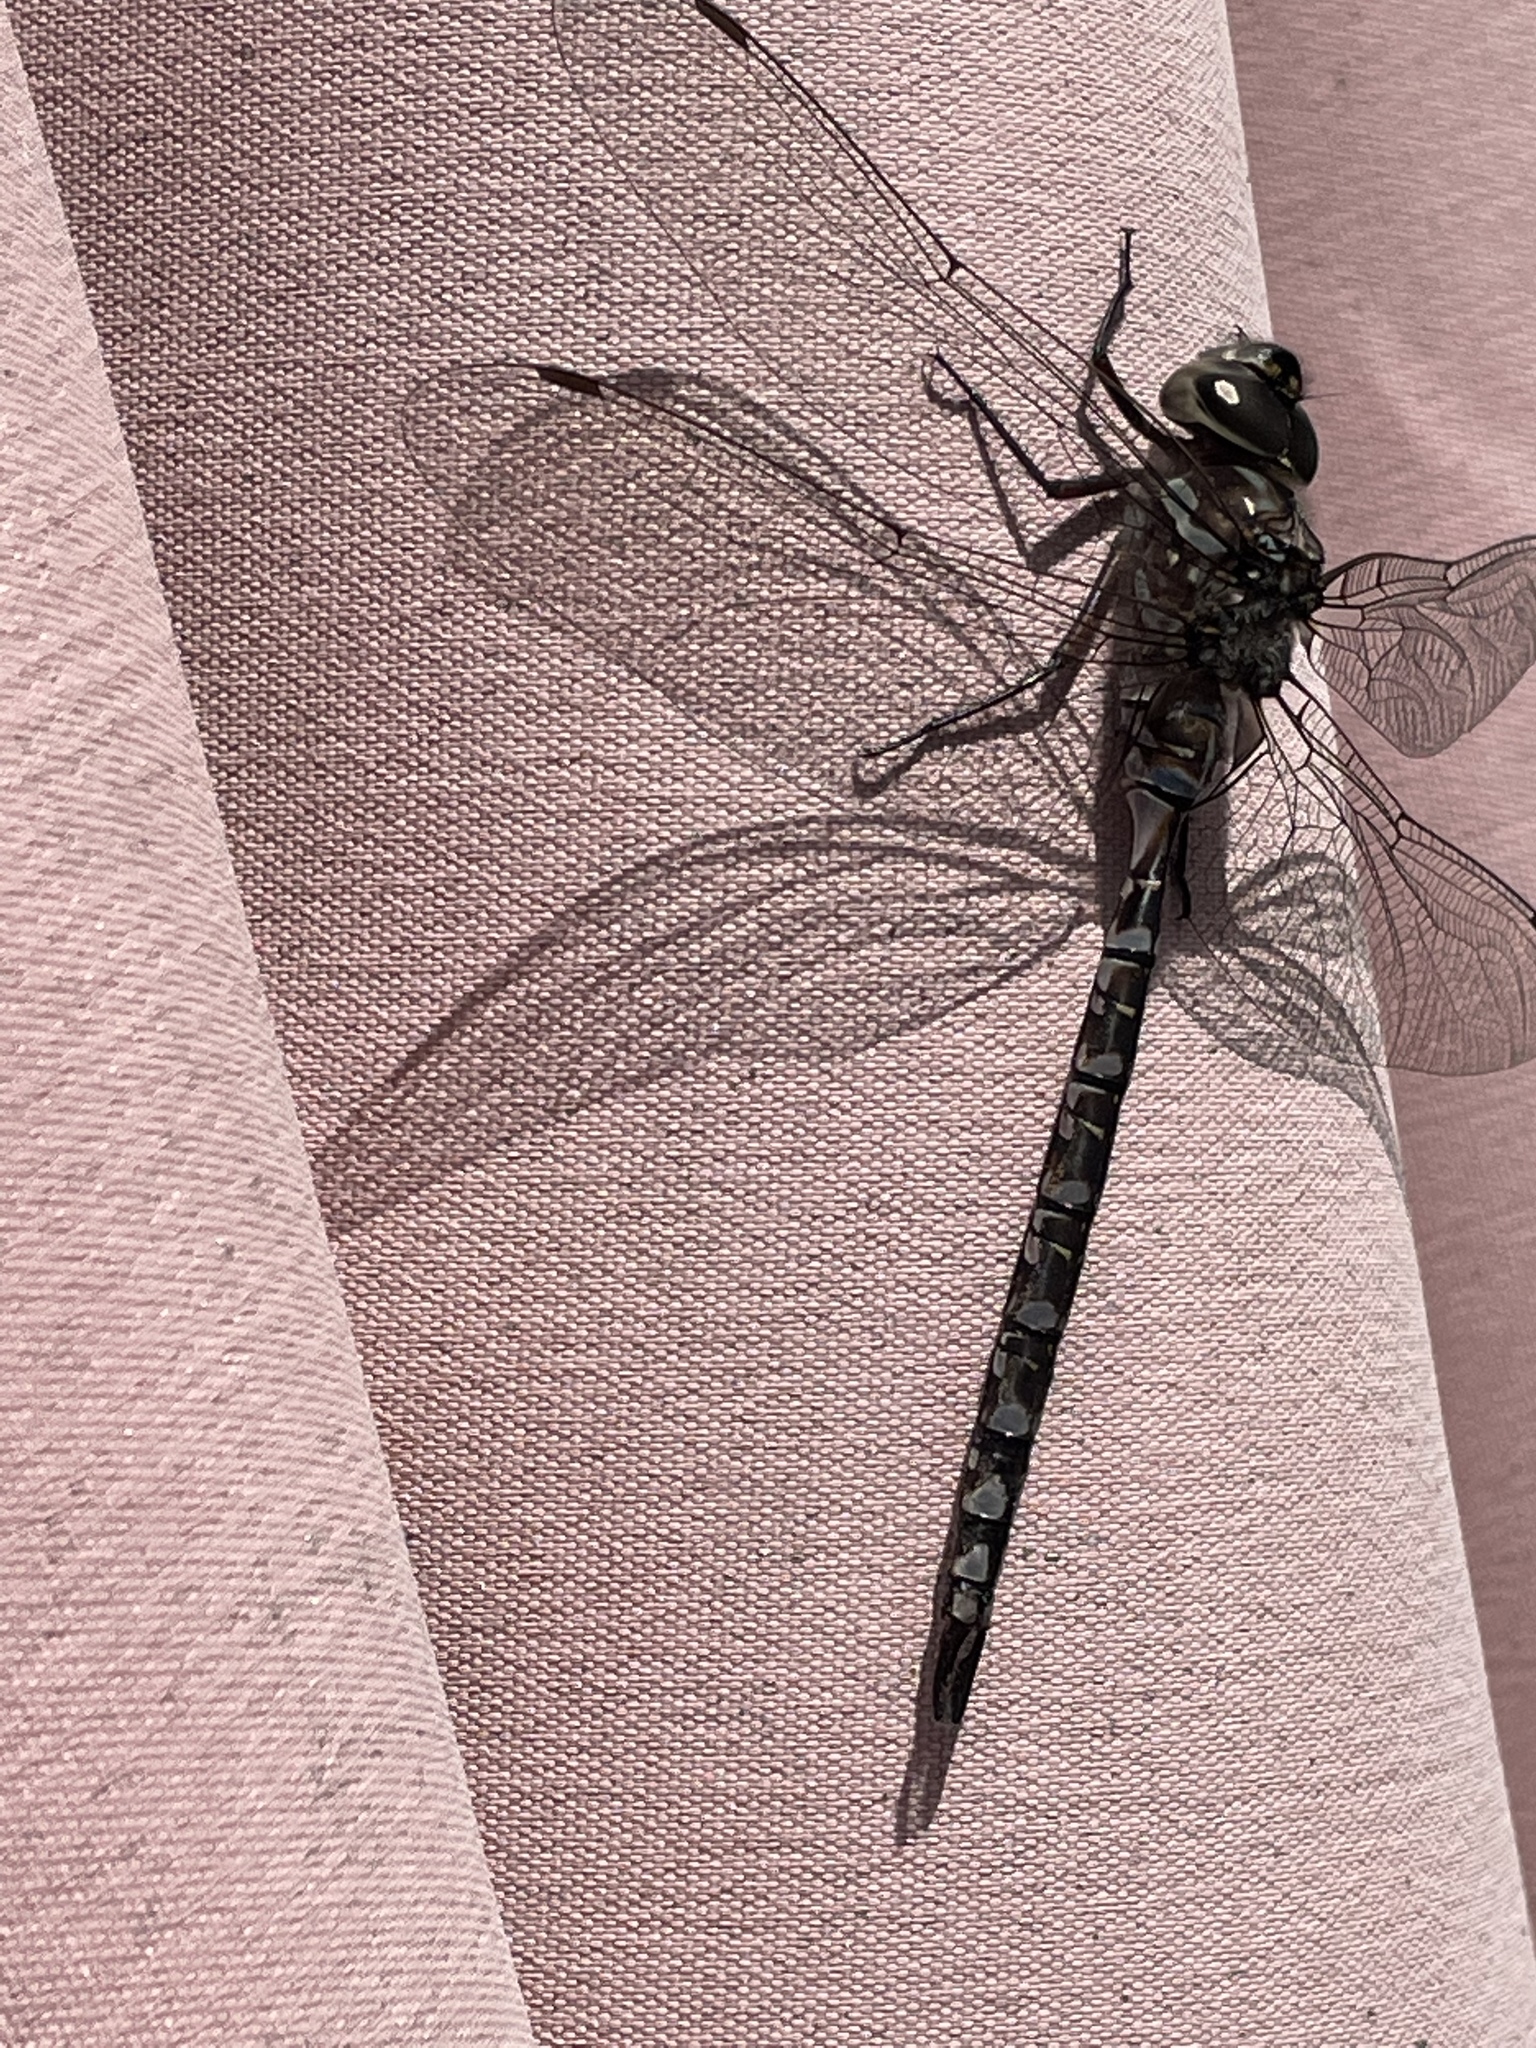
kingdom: Animalia
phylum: Arthropoda
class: Insecta
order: Odonata
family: Aeshnidae
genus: Aeshna
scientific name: Aeshna canadensis
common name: Canada darner
